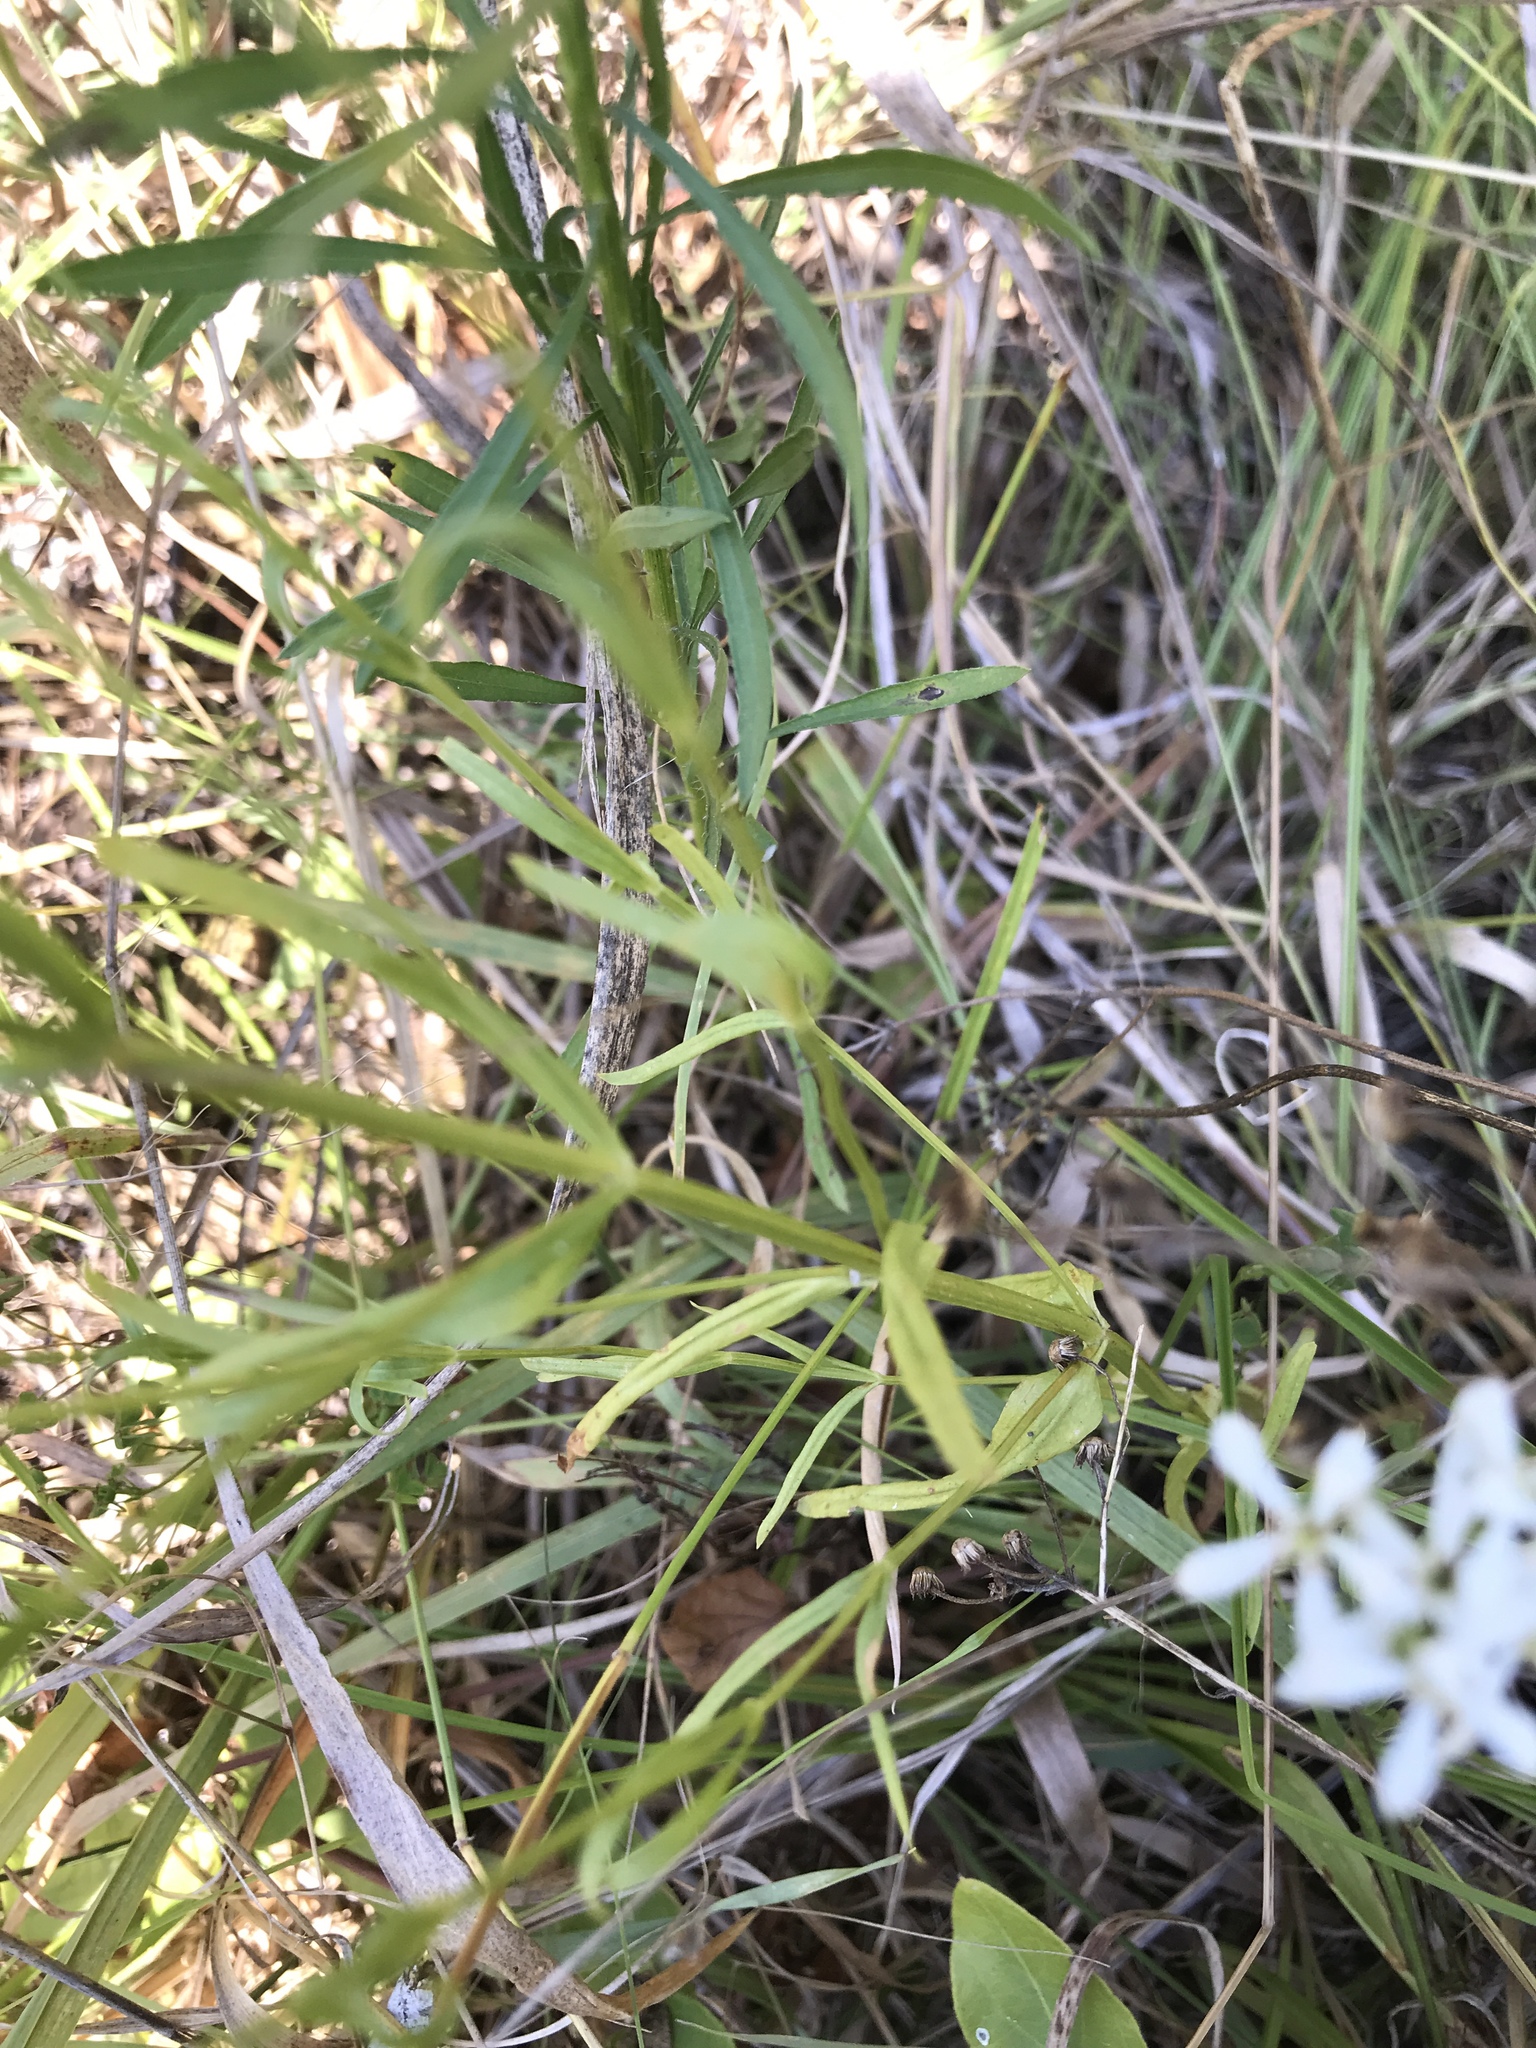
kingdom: Plantae
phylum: Tracheophyta
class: Magnoliopsida
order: Gentianales
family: Gentianaceae
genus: Sabatia
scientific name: Sabatia quadrangula
